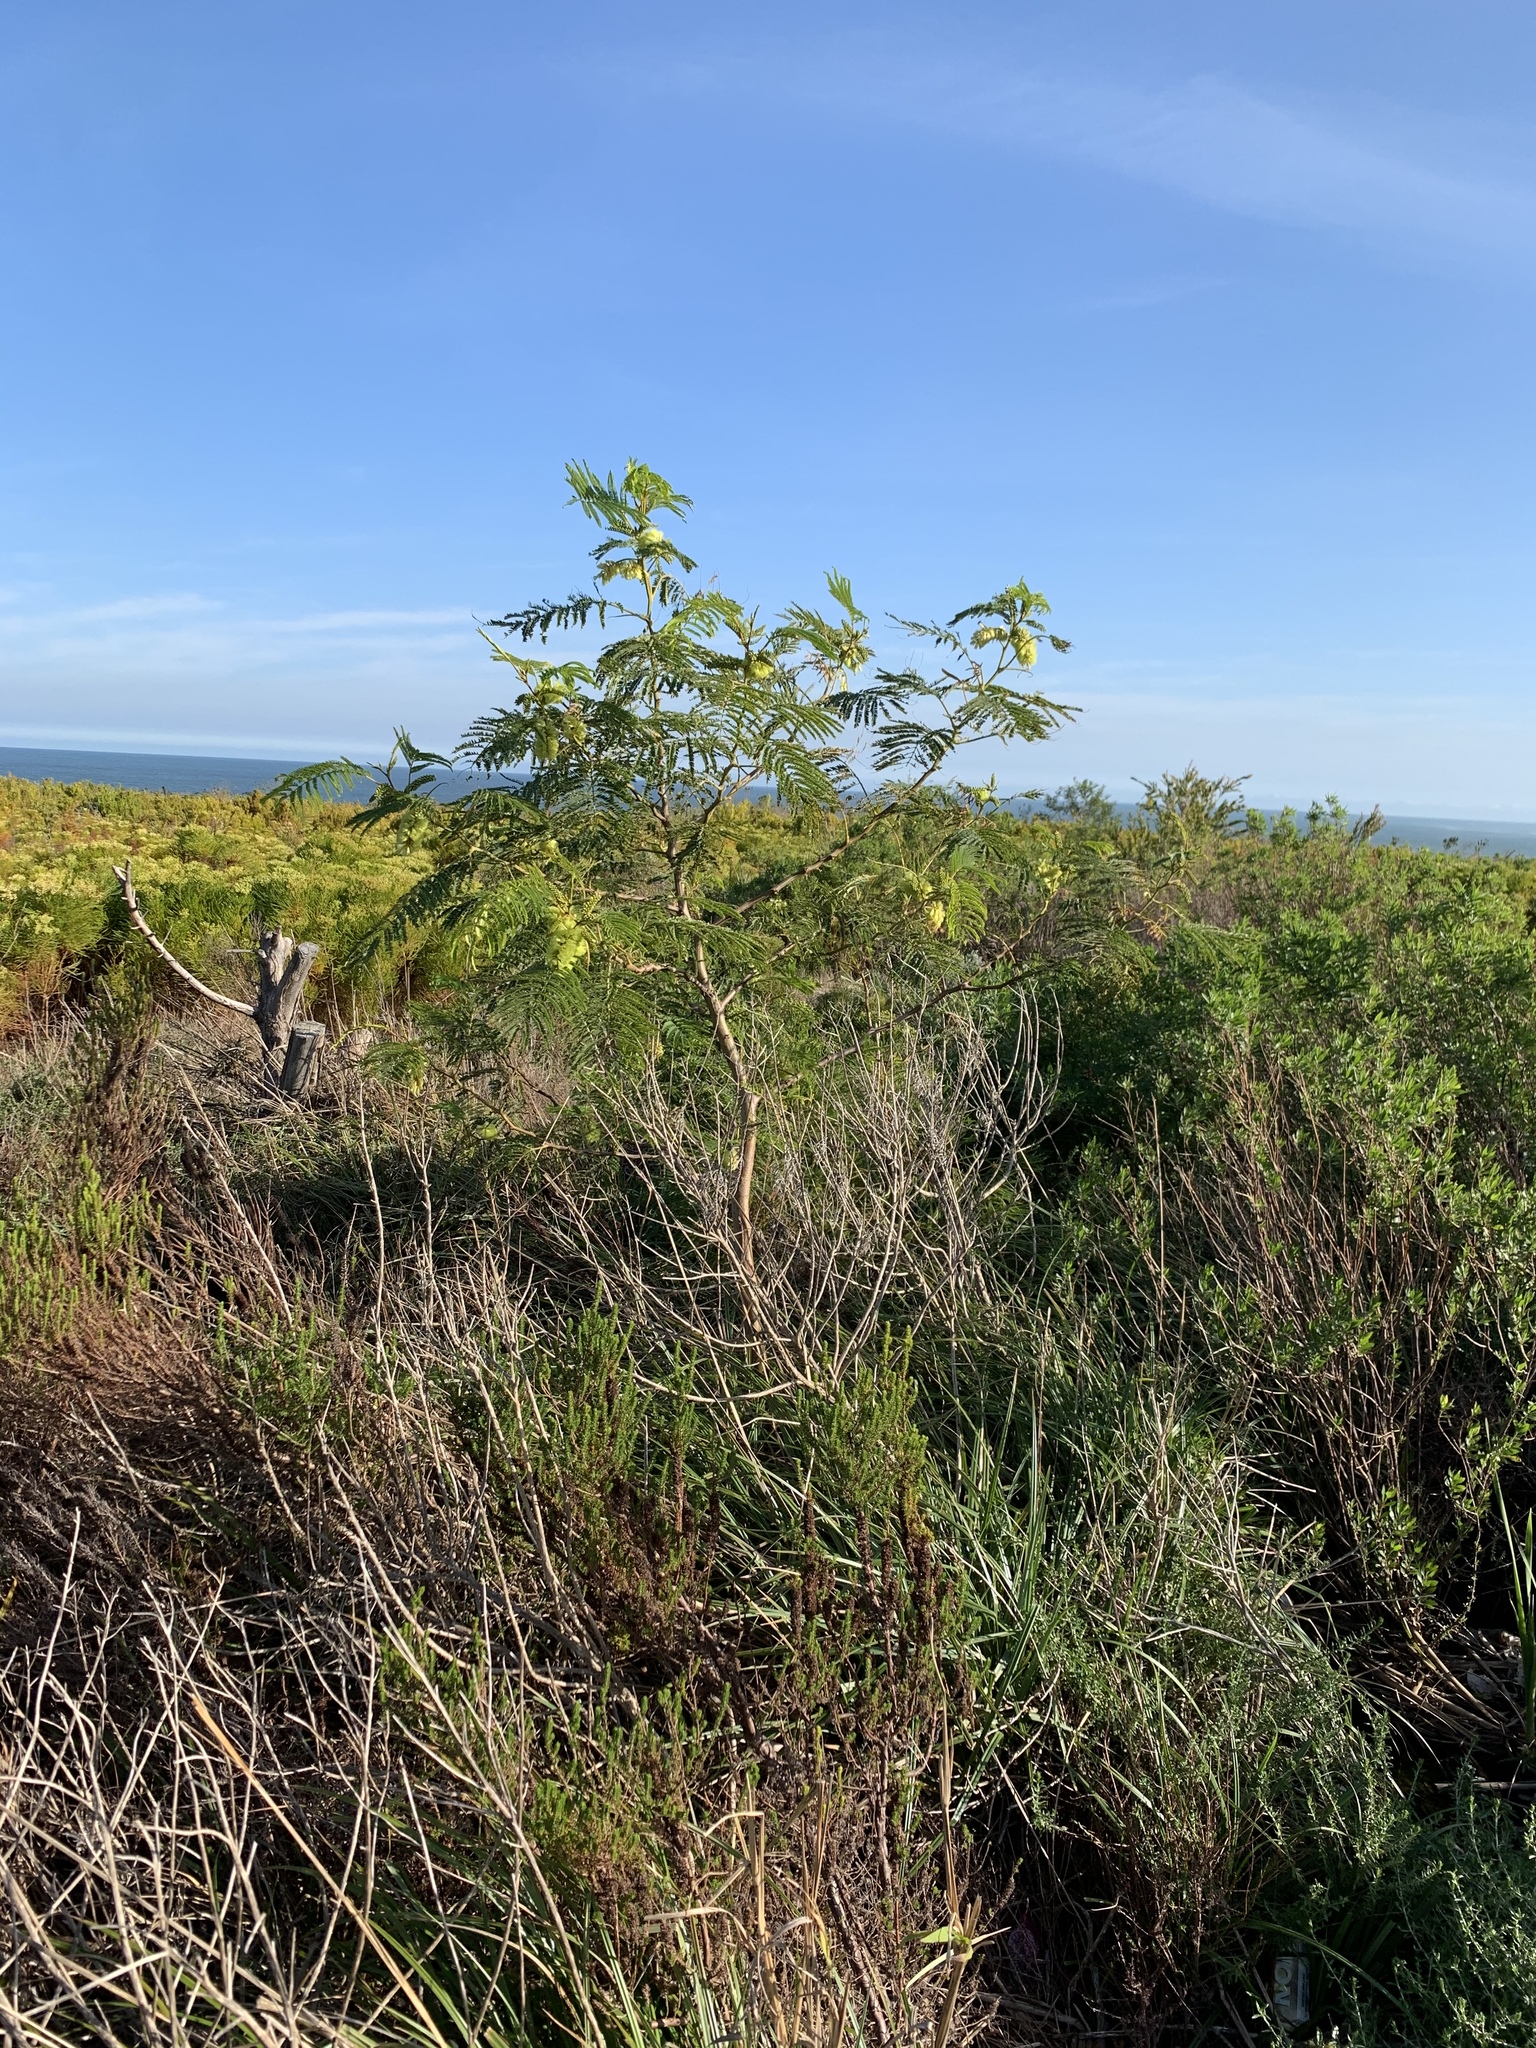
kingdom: Plantae
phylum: Tracheophyta
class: Magnoliopsida
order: Fabales
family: Fabaceae
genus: Paraserianthes
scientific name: Paraserianthes lophantha
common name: Plume albizia
